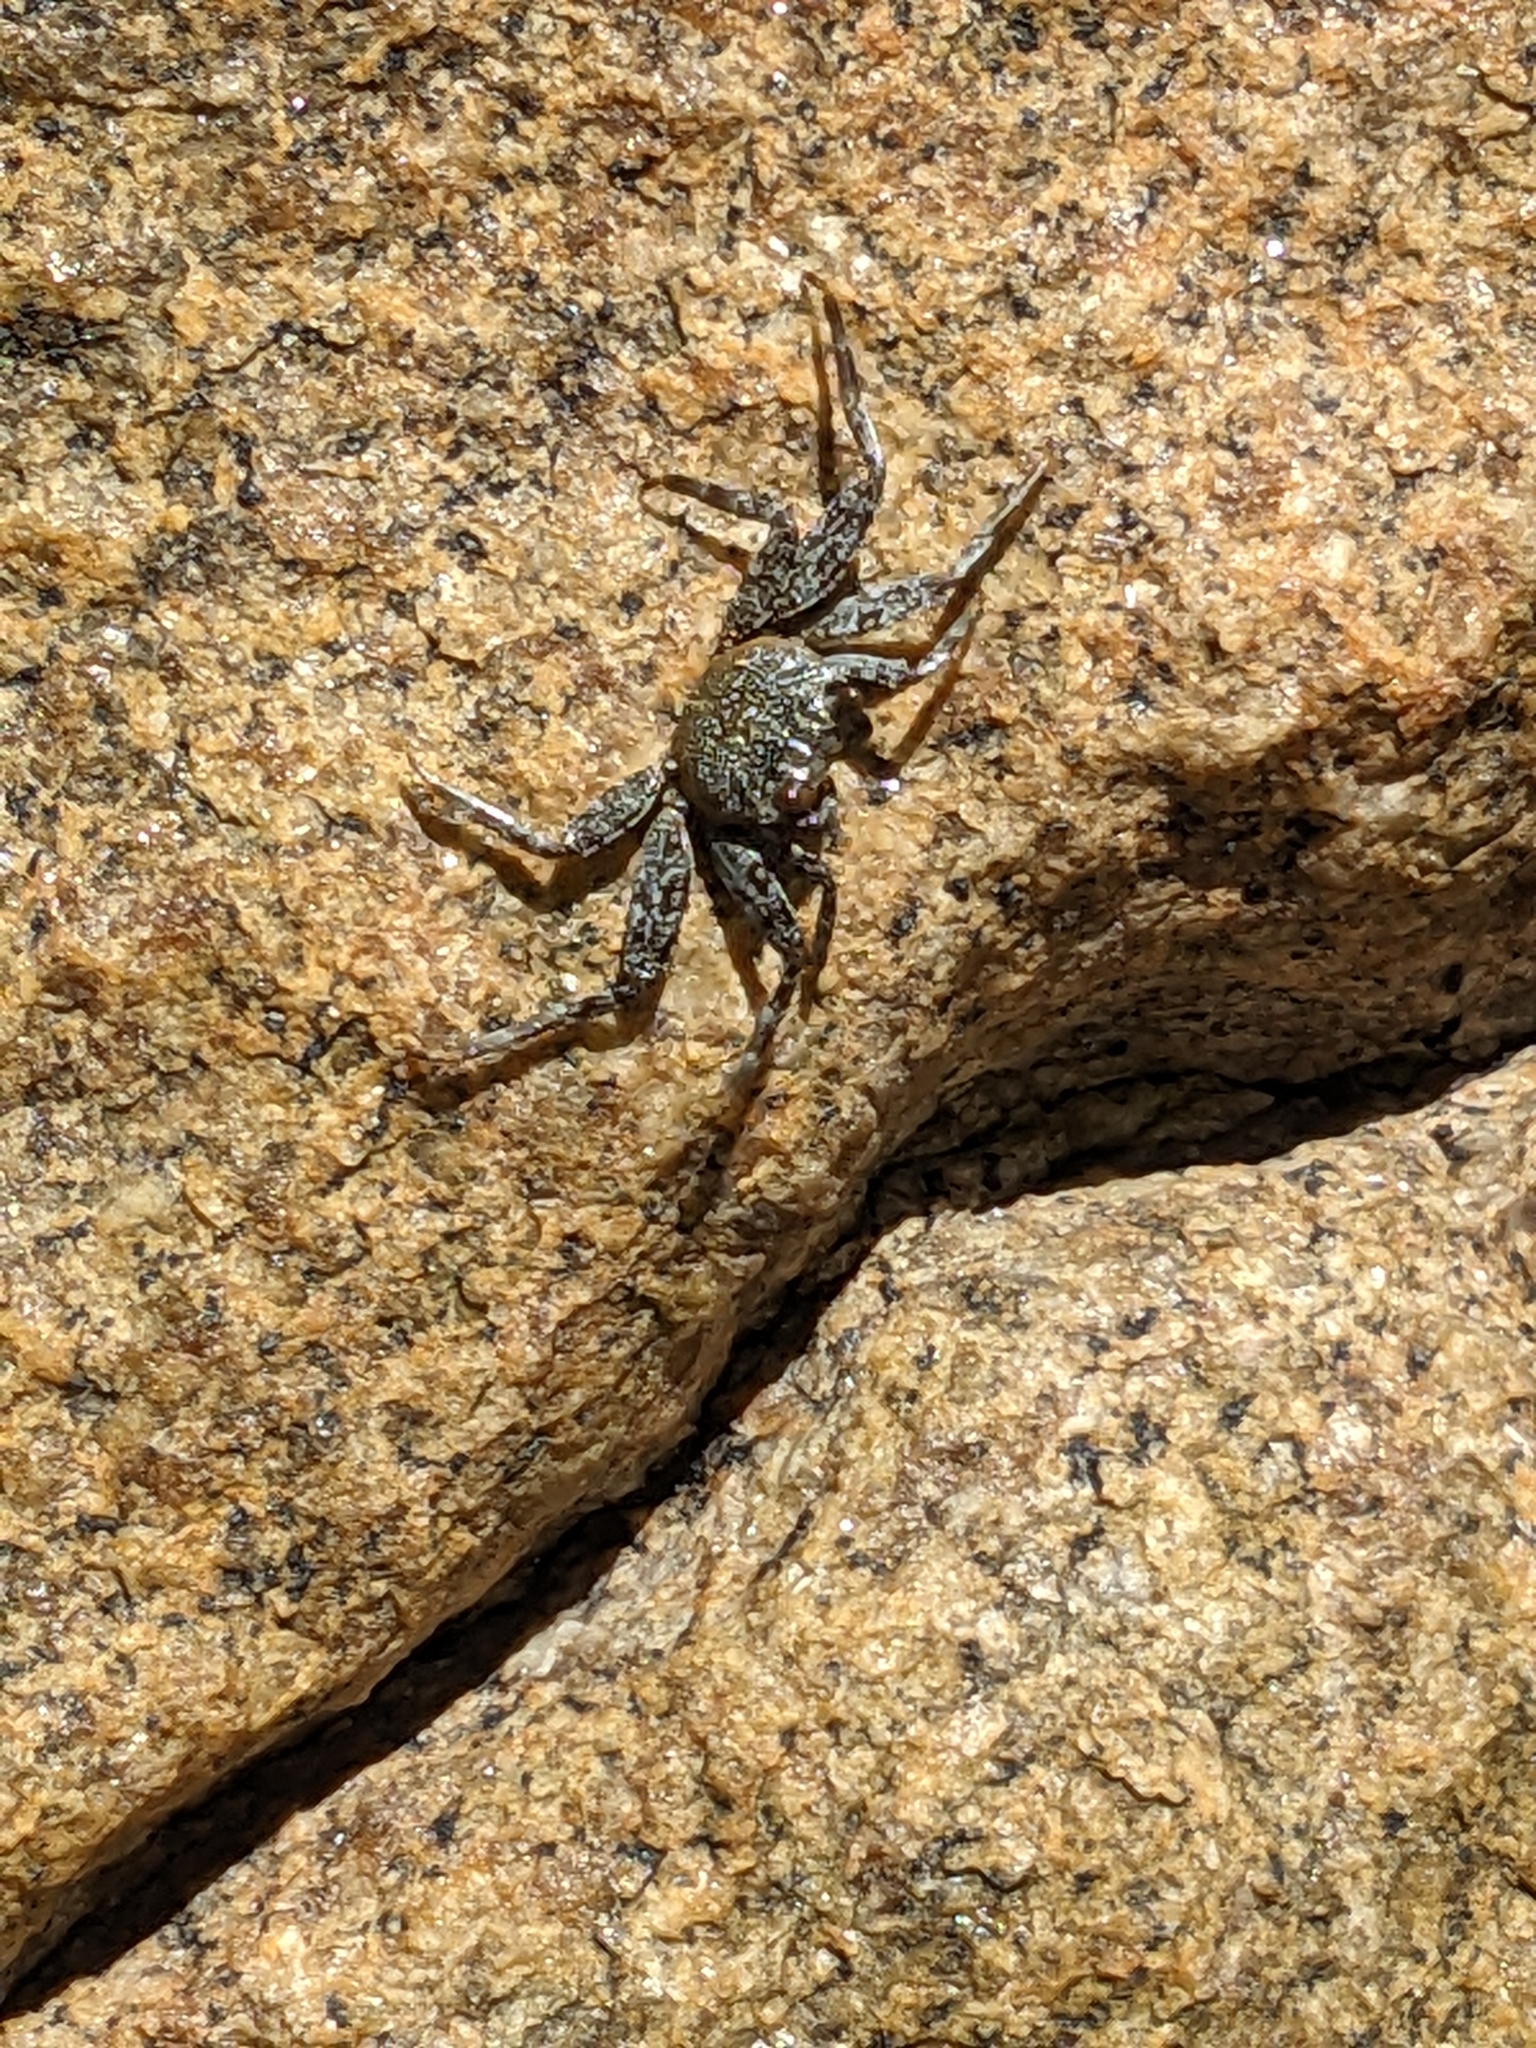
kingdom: Animalia
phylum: Arthropoda
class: Malacostraca
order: Decapoda
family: Grapsidae
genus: Grapsus
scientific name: Grapsus grapsus
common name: Sally lightfoot
